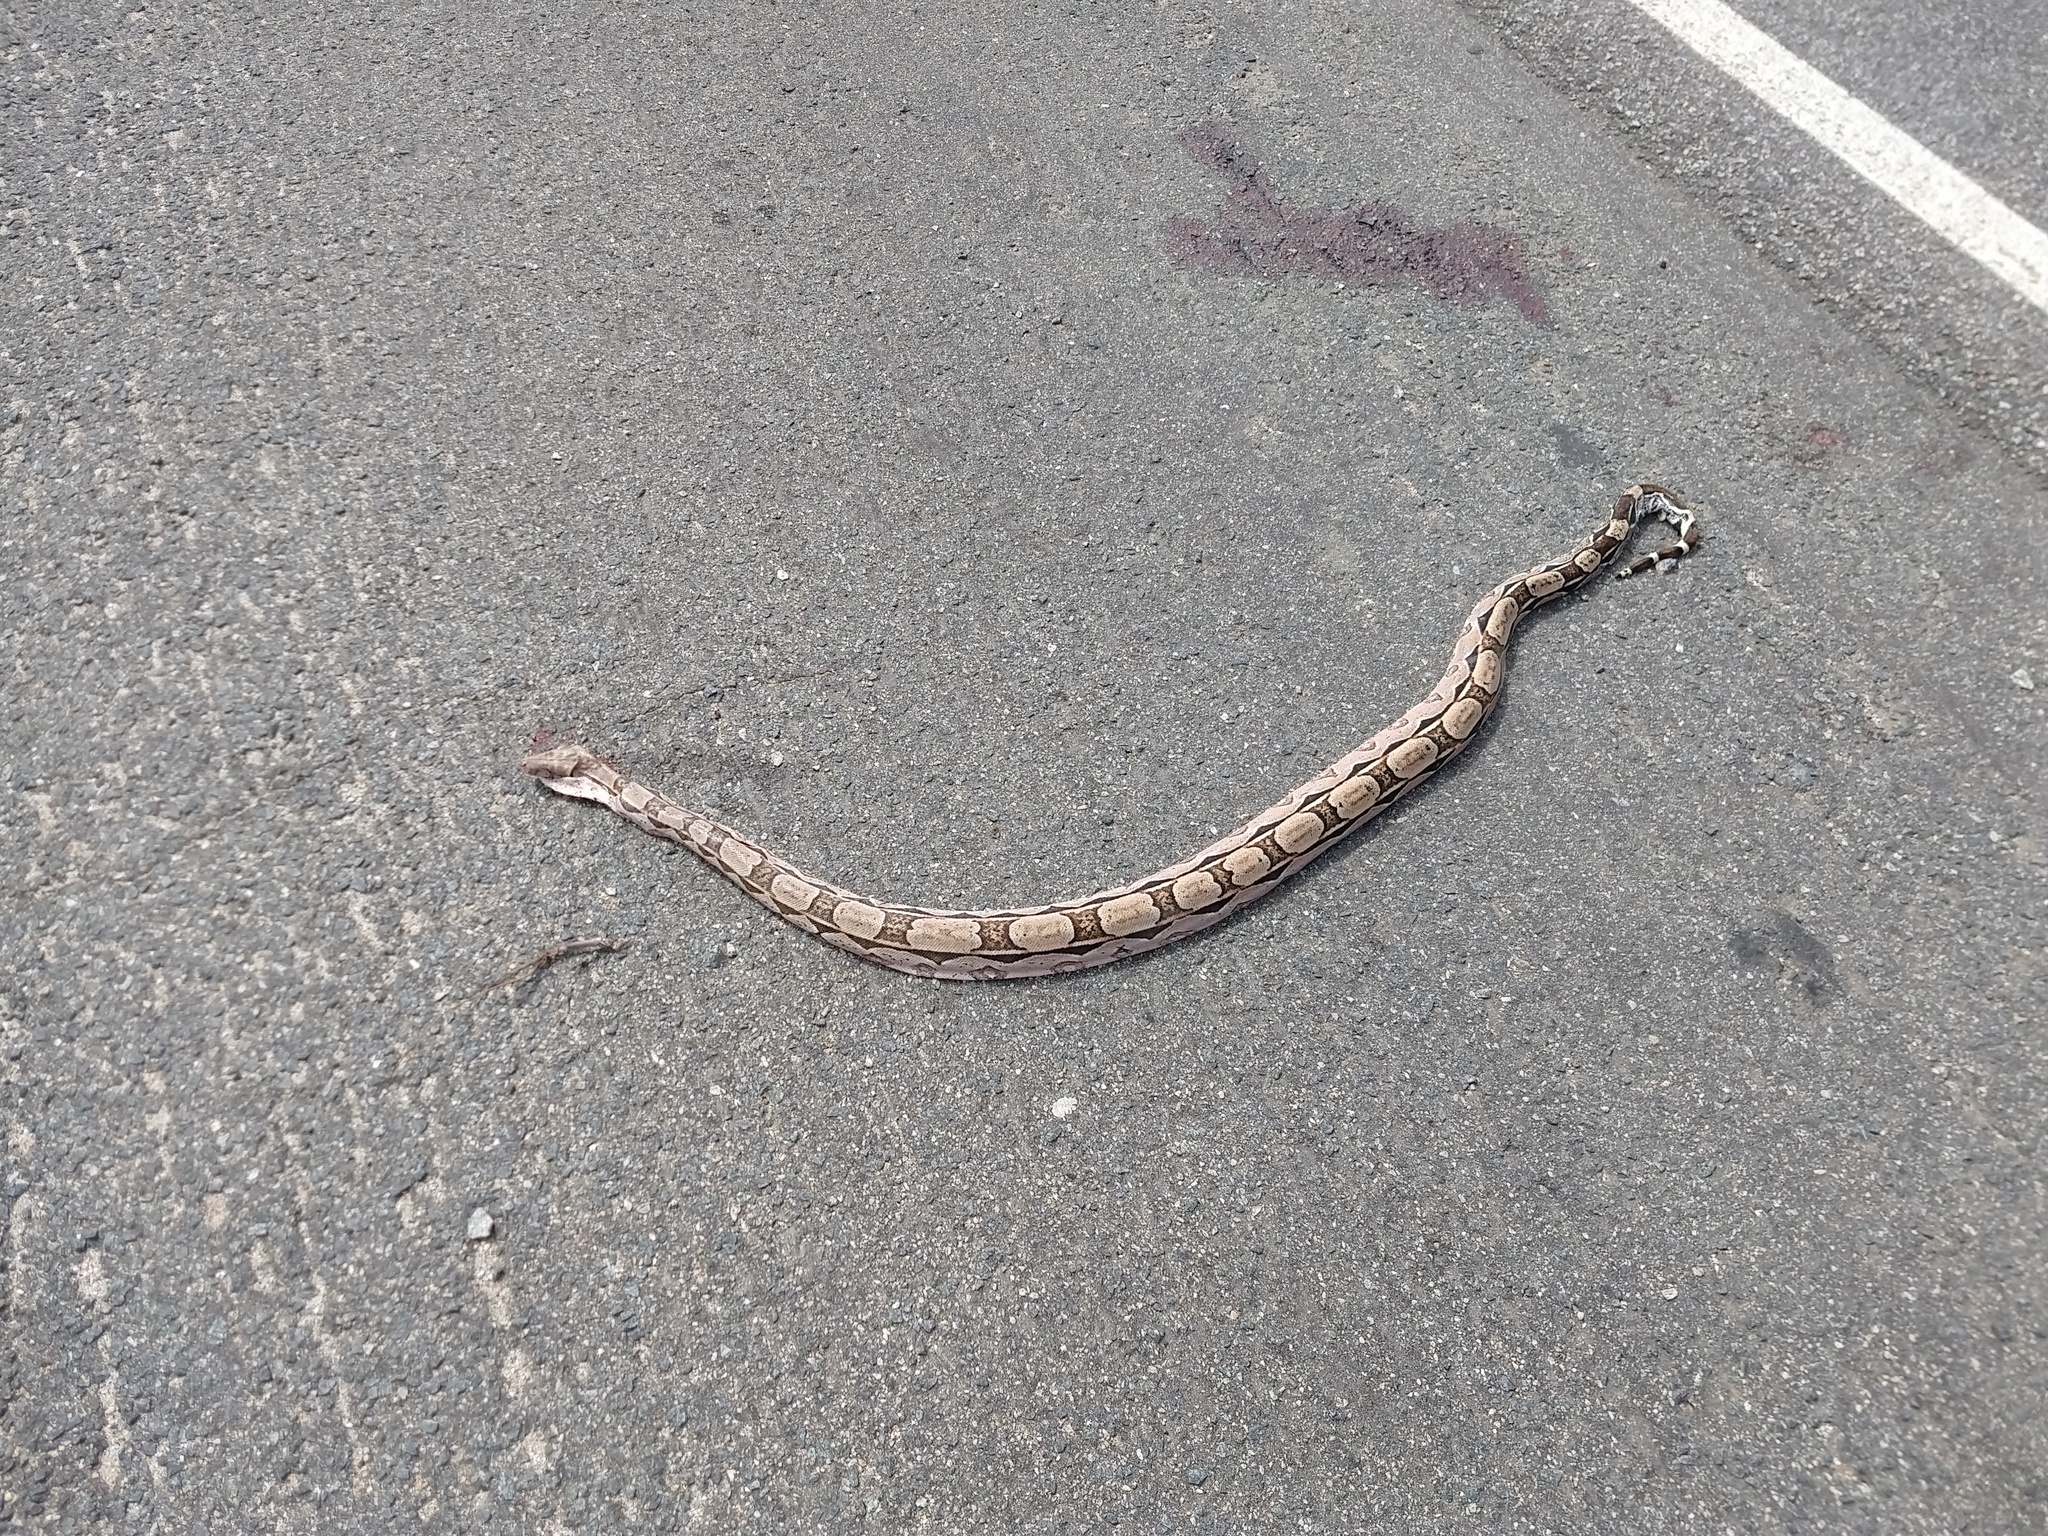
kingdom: Animalia
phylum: Chordata
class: Squamata
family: Boidae
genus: Boa
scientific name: Boa constrictor
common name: Boa constrictor
